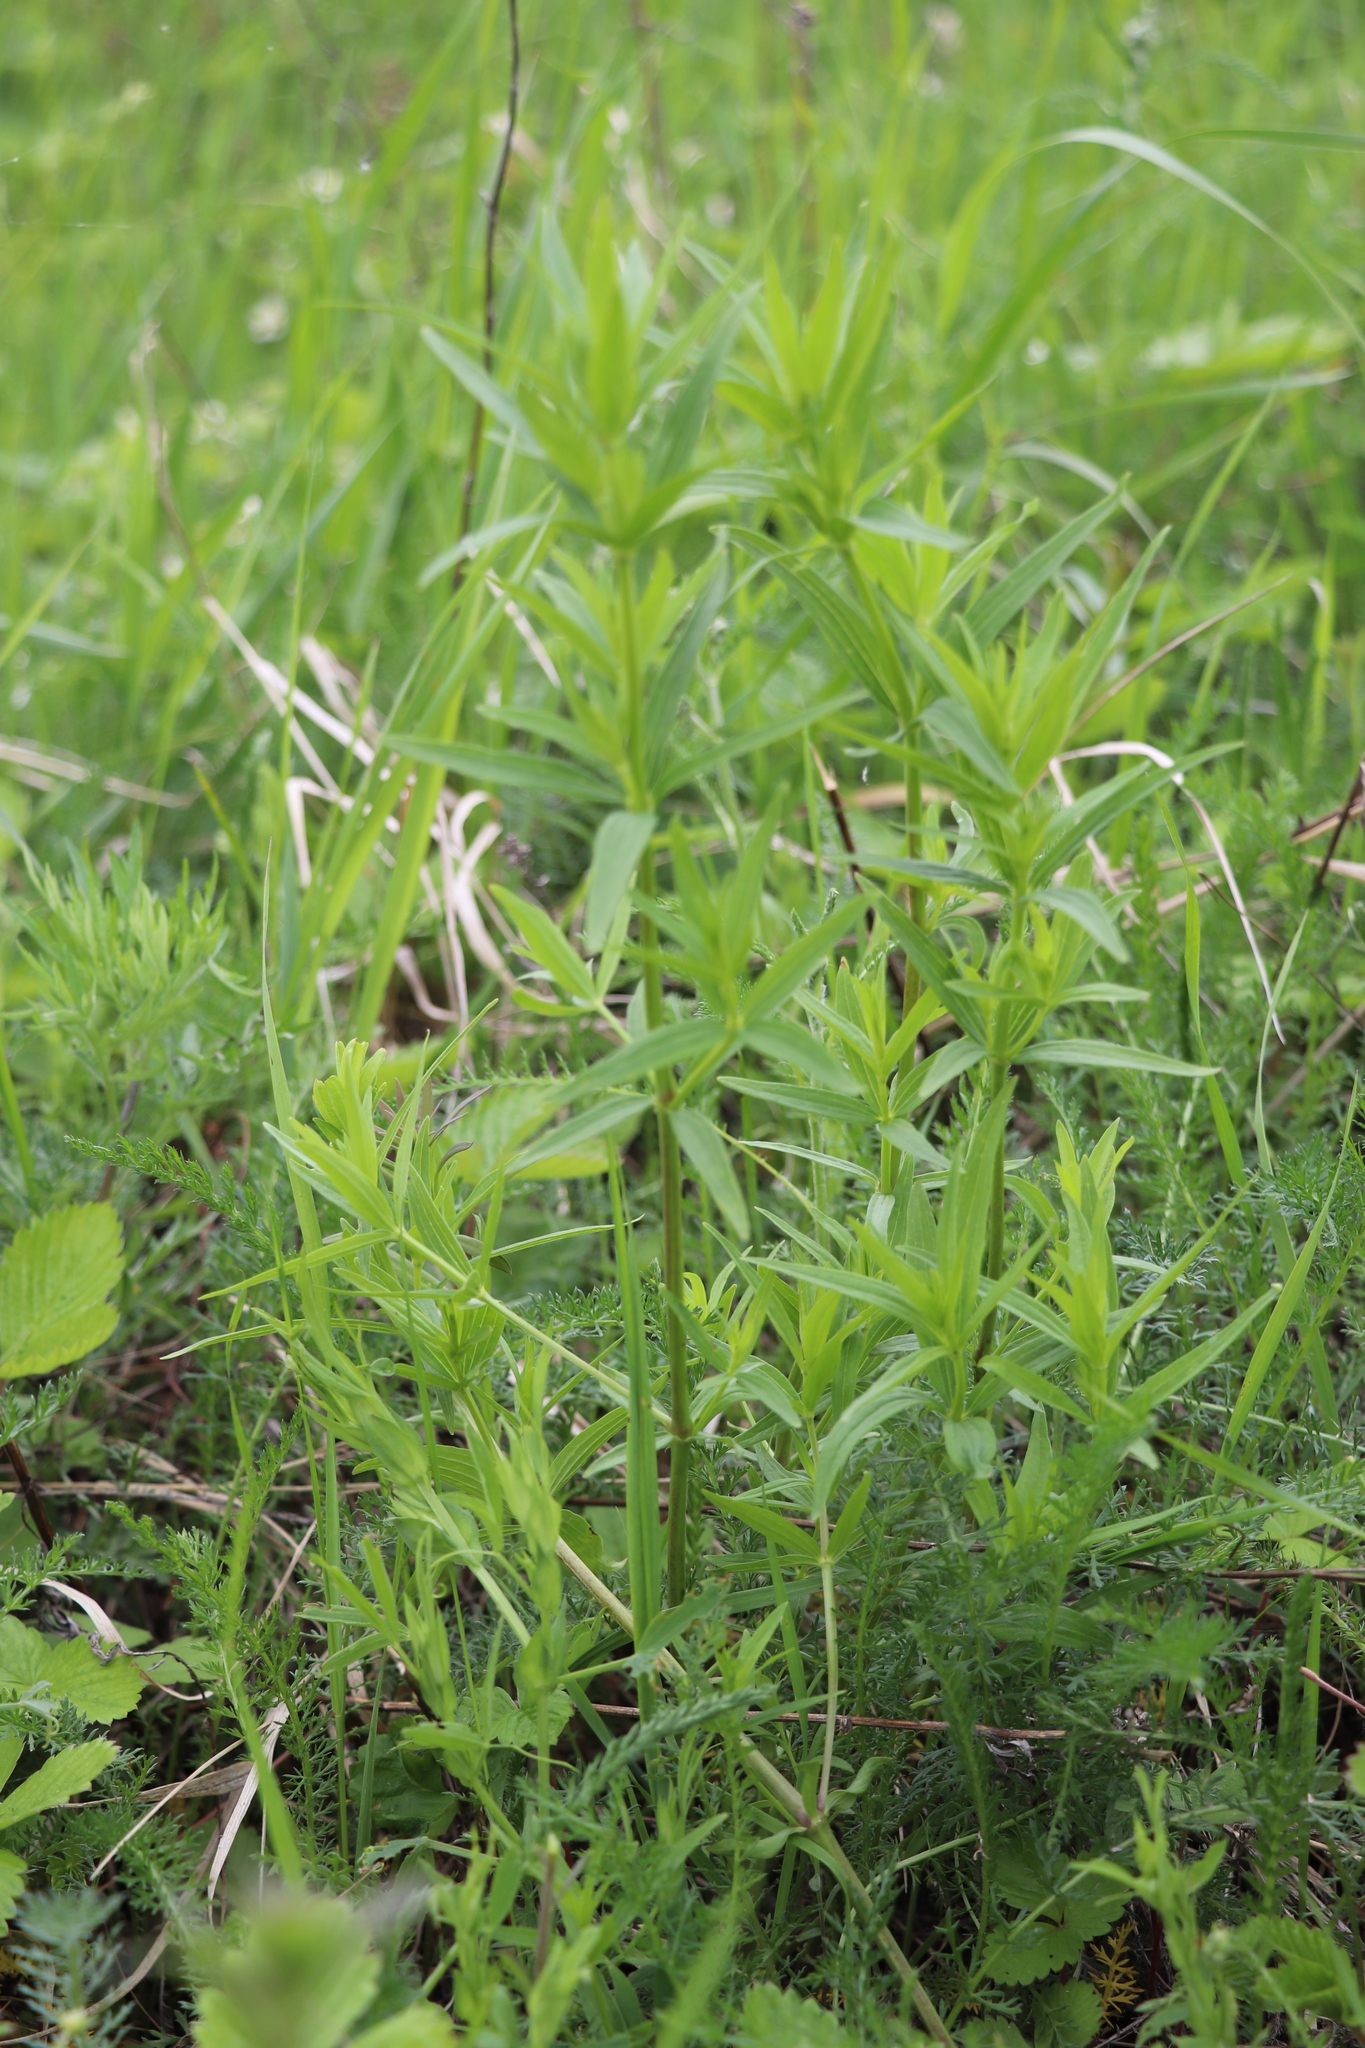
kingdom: Plantae
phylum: Tracheophyta
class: Magnoliopsida
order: Gentianales
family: Rubiaceae
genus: Galium
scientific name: Galium boreale
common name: Northern bedstraw
